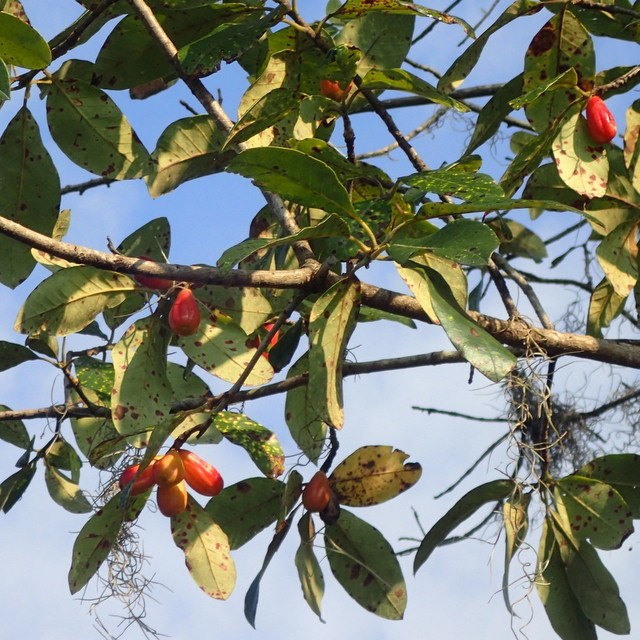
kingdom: Plantae
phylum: Tracheophyta
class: Magnoliopsida
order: Cornales
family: Nyssaceae
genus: Nyssa
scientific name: Nyssa ogeche
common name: Ogeechee tupelo
